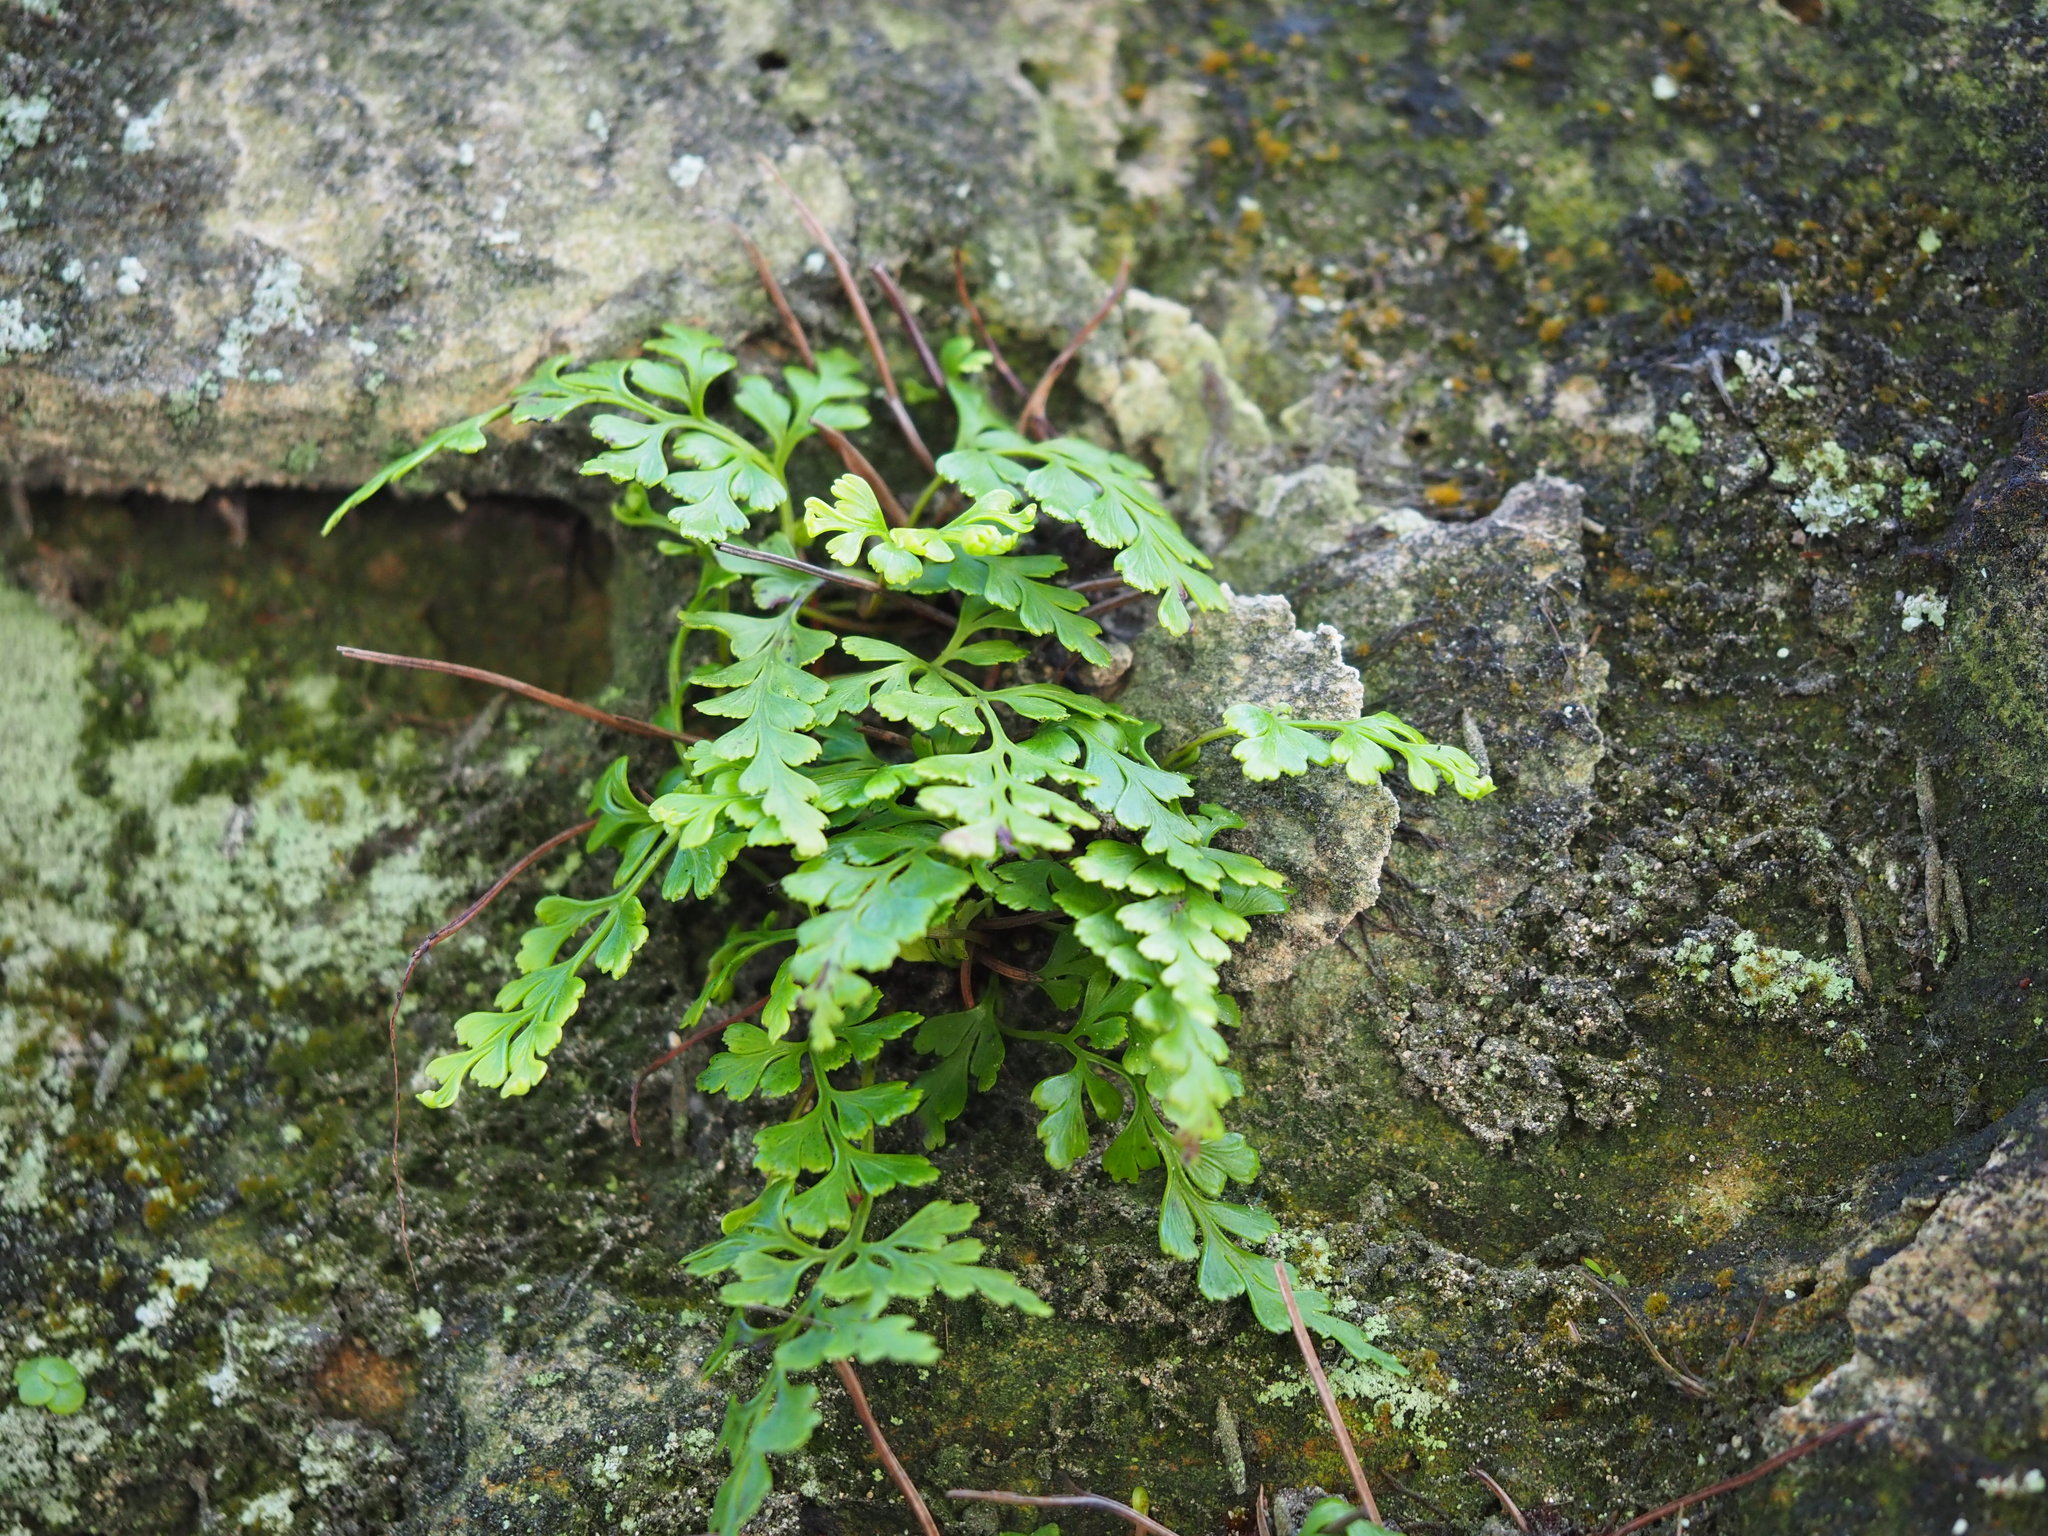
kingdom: Plantae
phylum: Tracheophyta
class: Polypodiopsida
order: Polypodiales
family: Lindsaeaceae
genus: Odontosoria
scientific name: Odontosoria biflora
